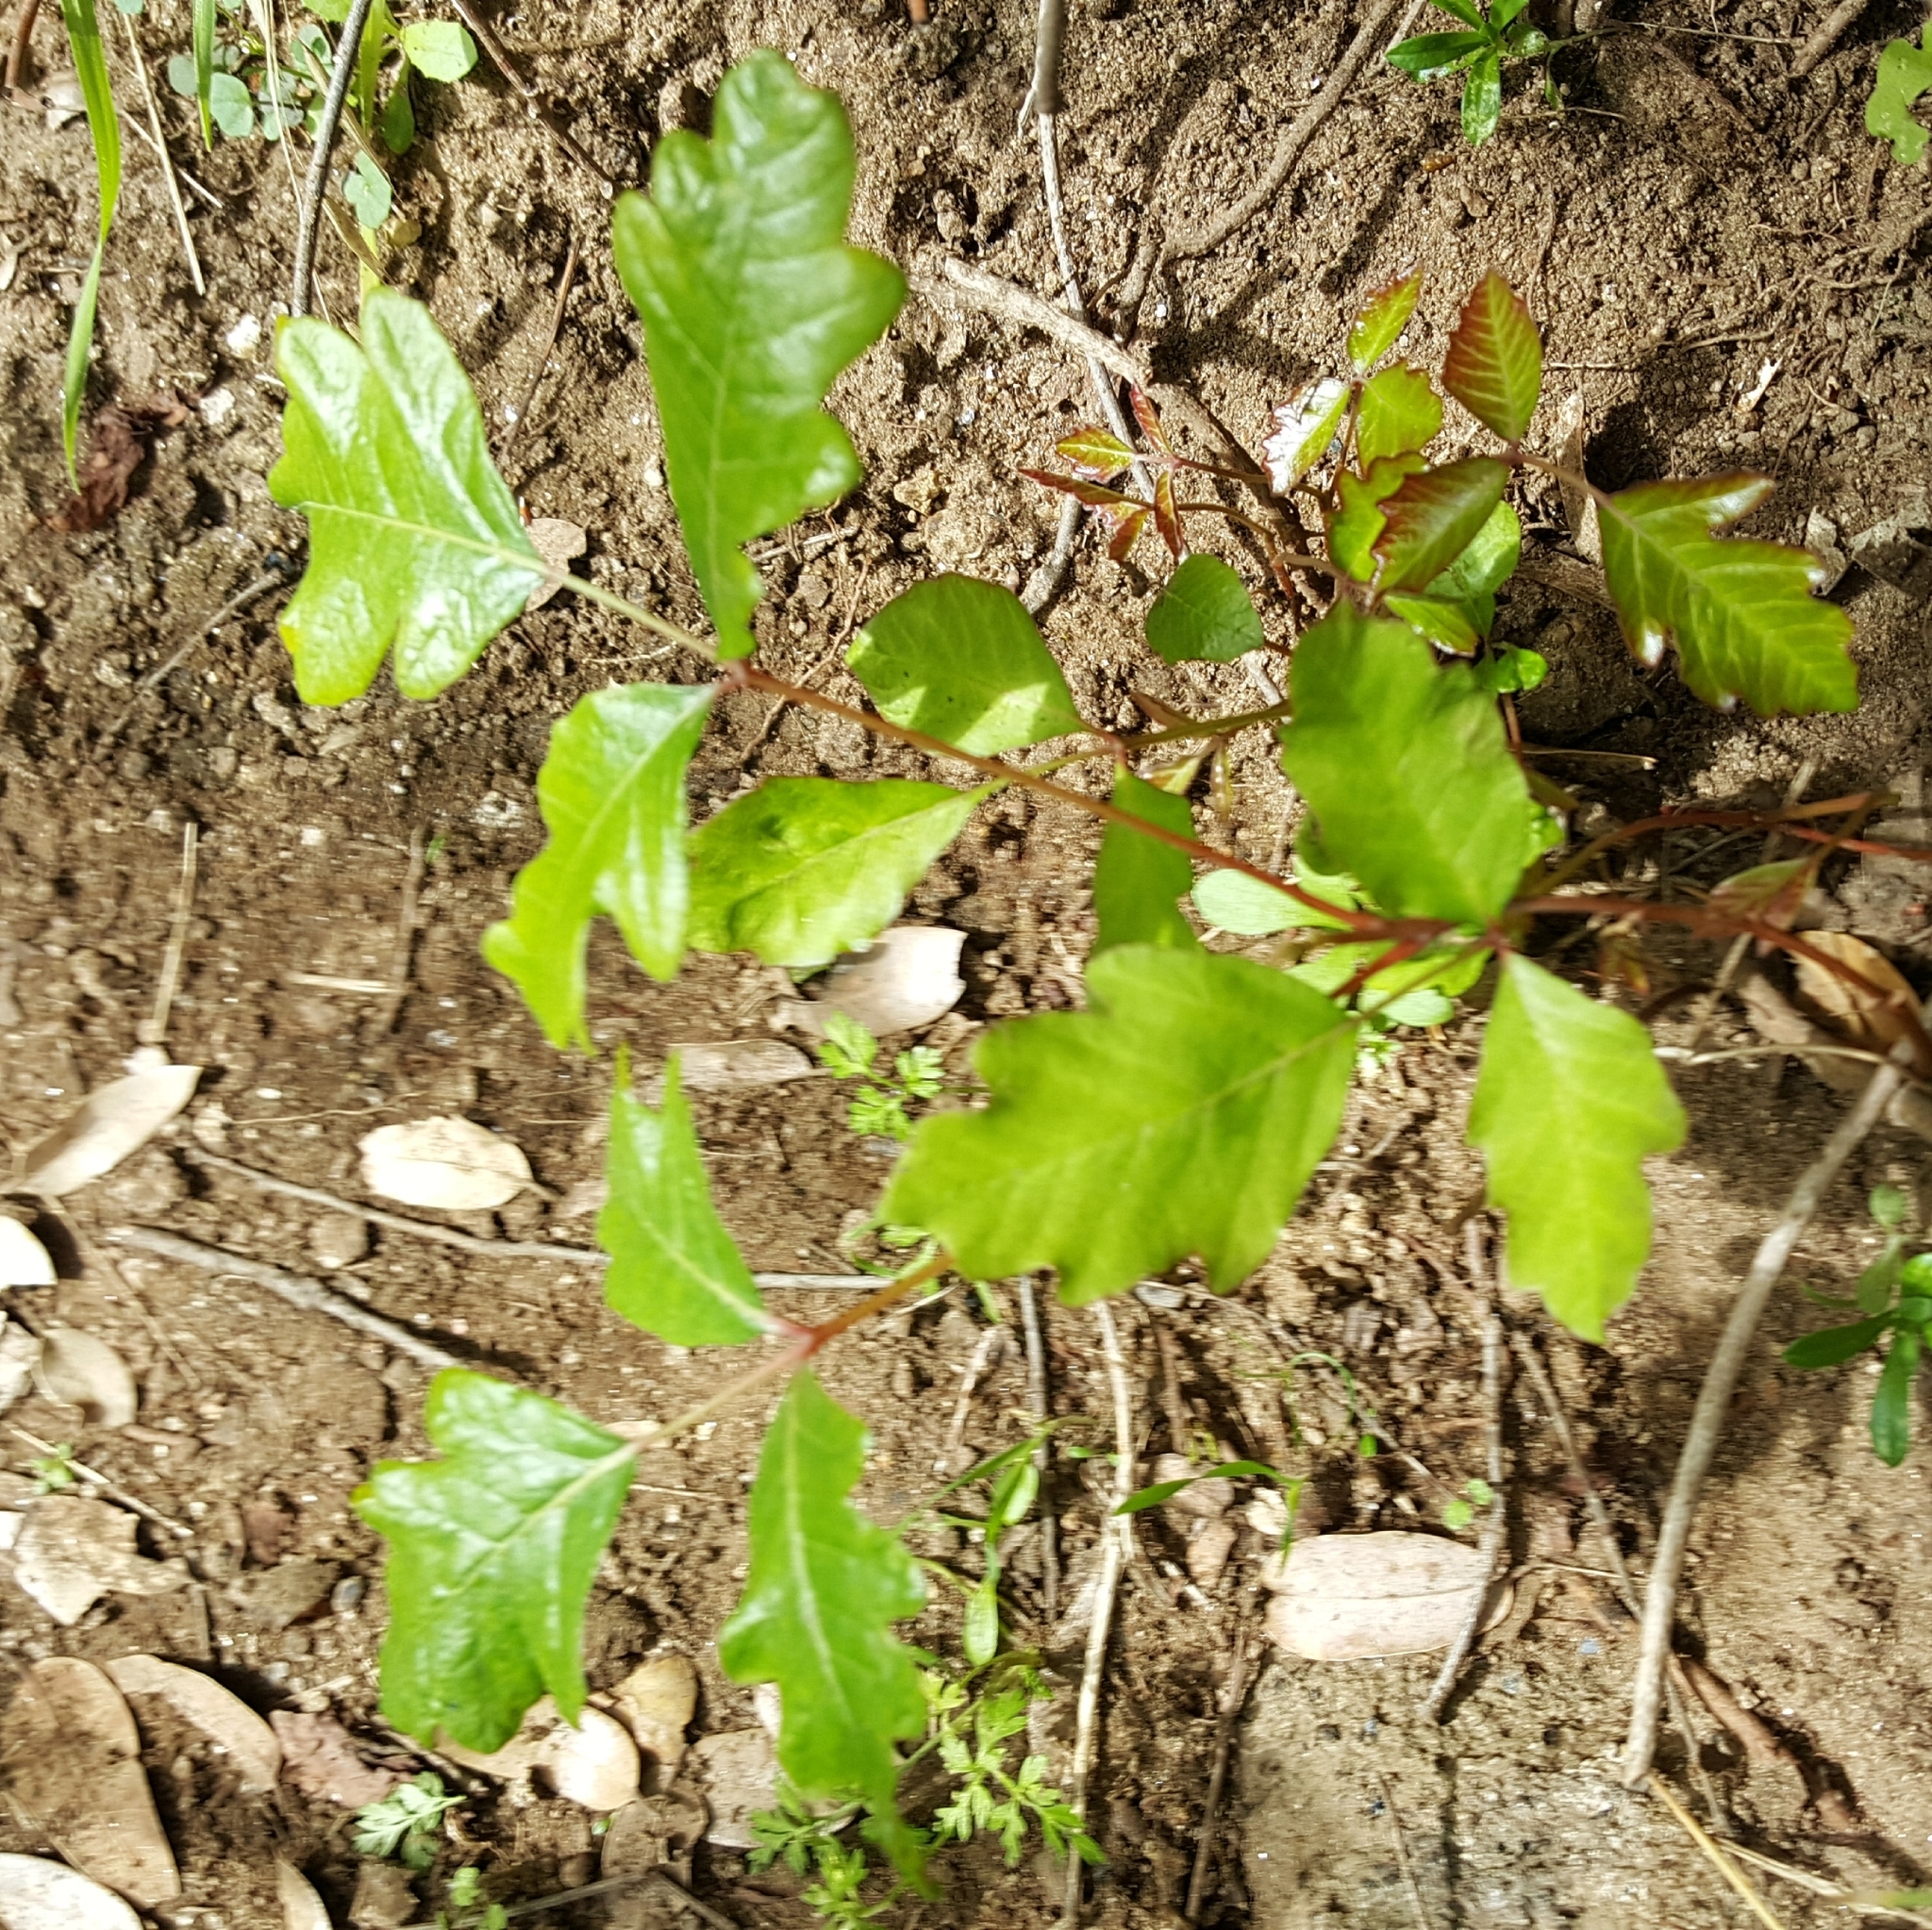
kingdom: Plantae
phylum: Tracheophyta
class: Magnoliopsida
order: Sapindales
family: Anacardiaceae
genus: Toxicodendron
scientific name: Toxicodendron diversilobum
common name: Pacific poison-oak
